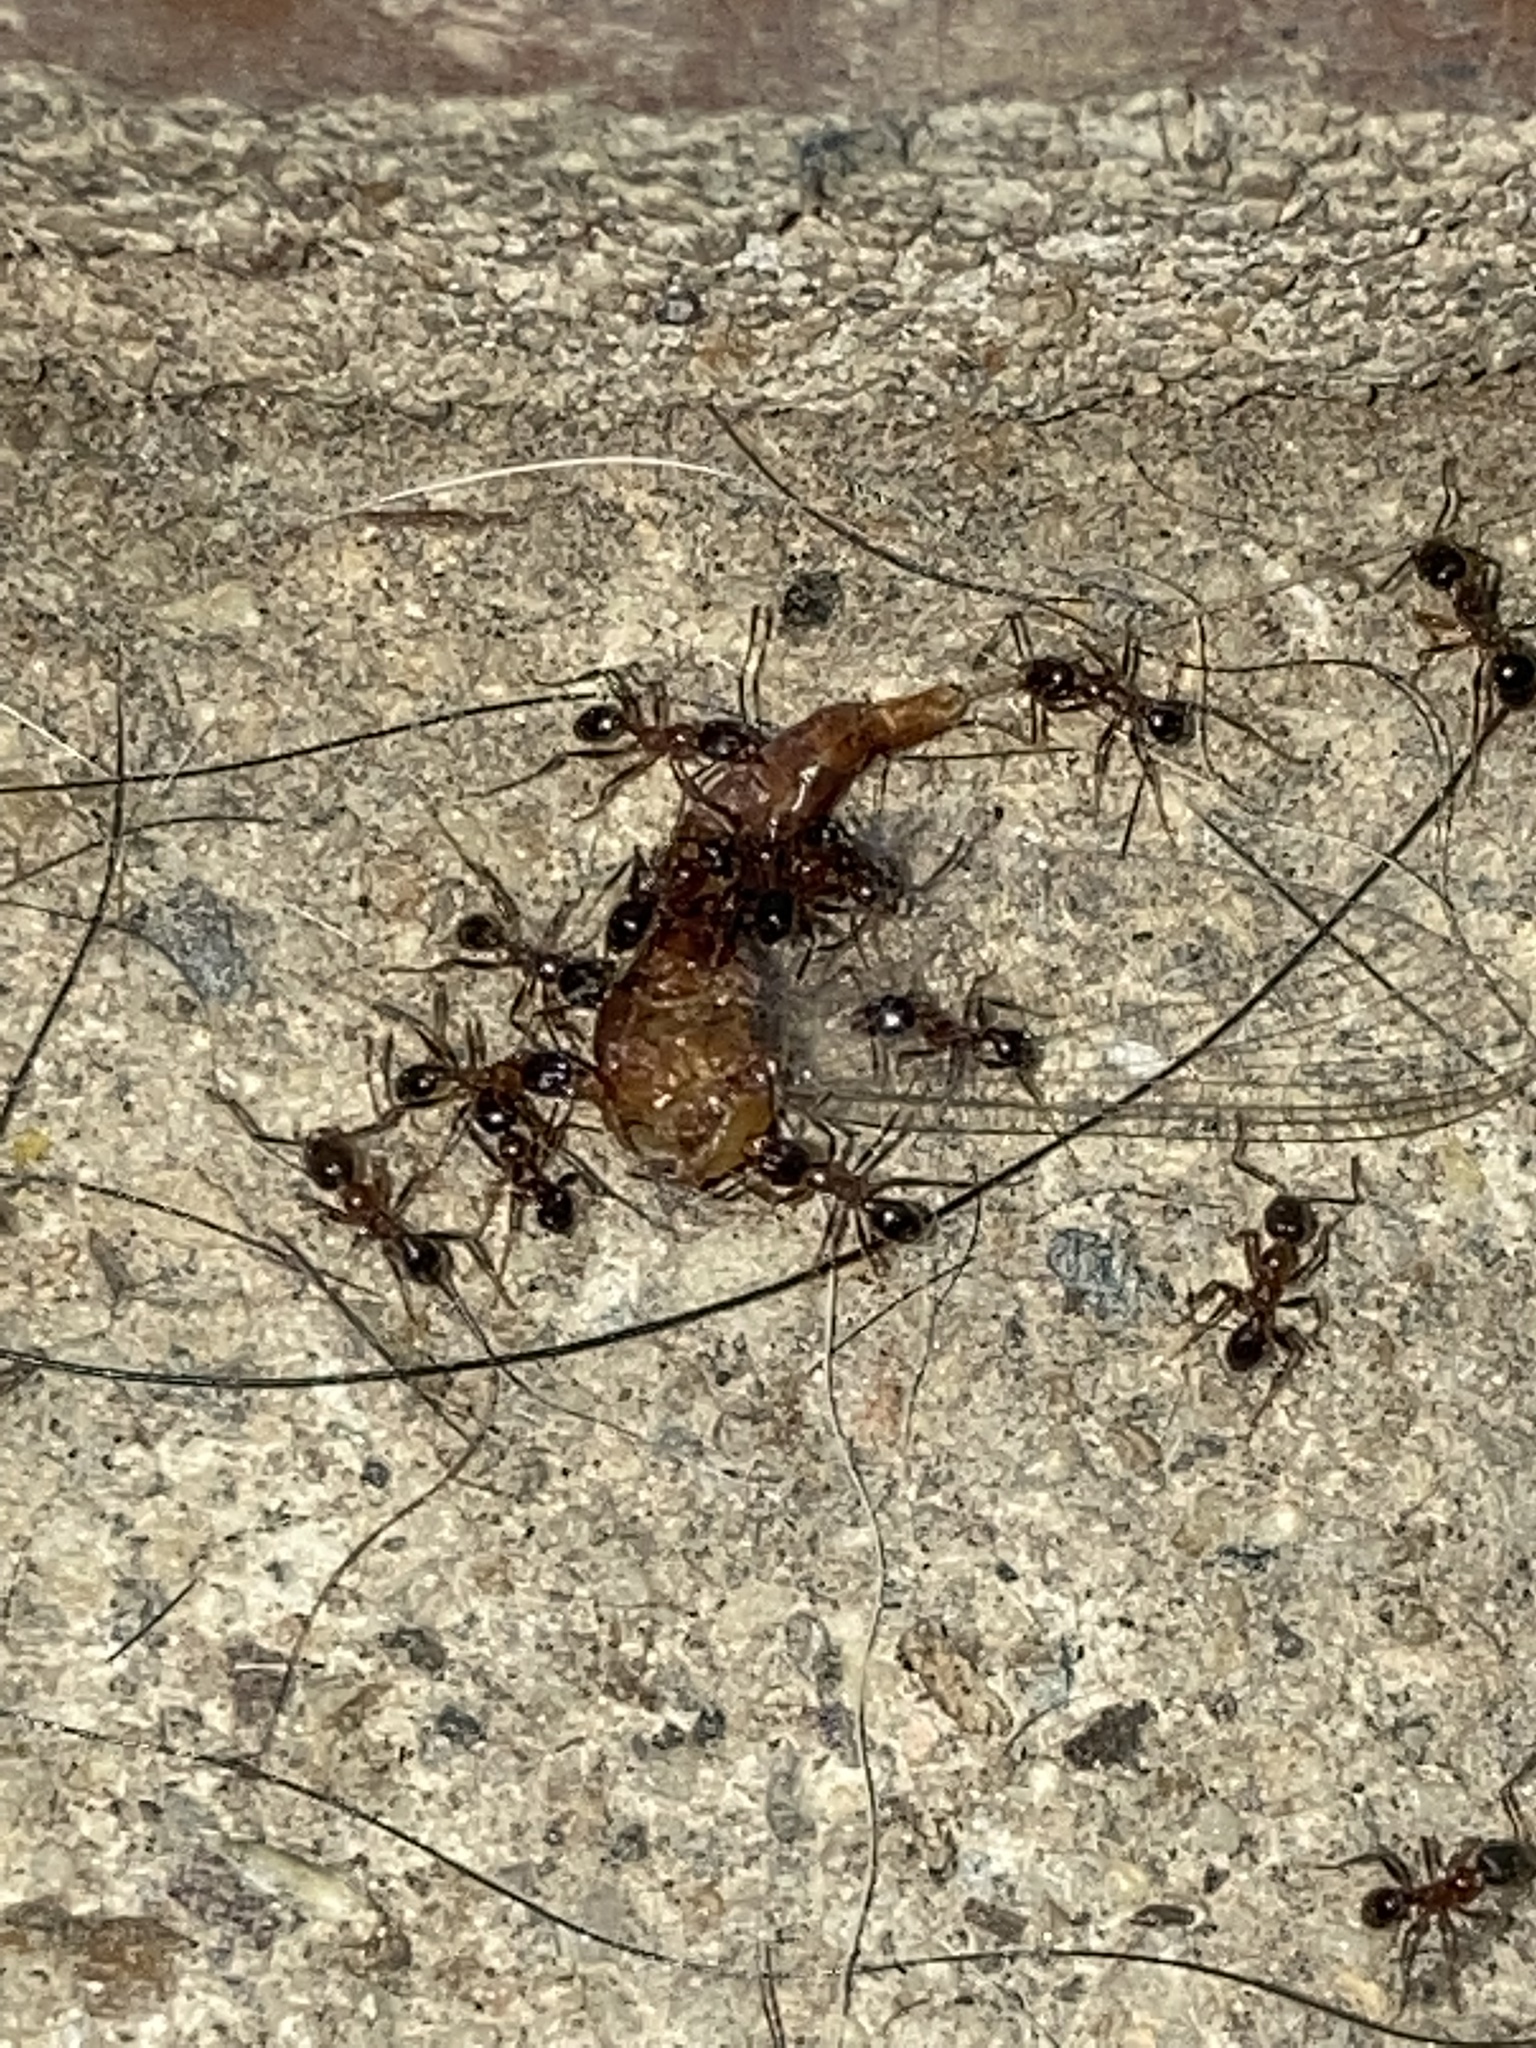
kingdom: Animalia
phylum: Arthropoda
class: Insecta
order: Hymenoptera
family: Formicidae
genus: Pheidole
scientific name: Pheidole dentata
